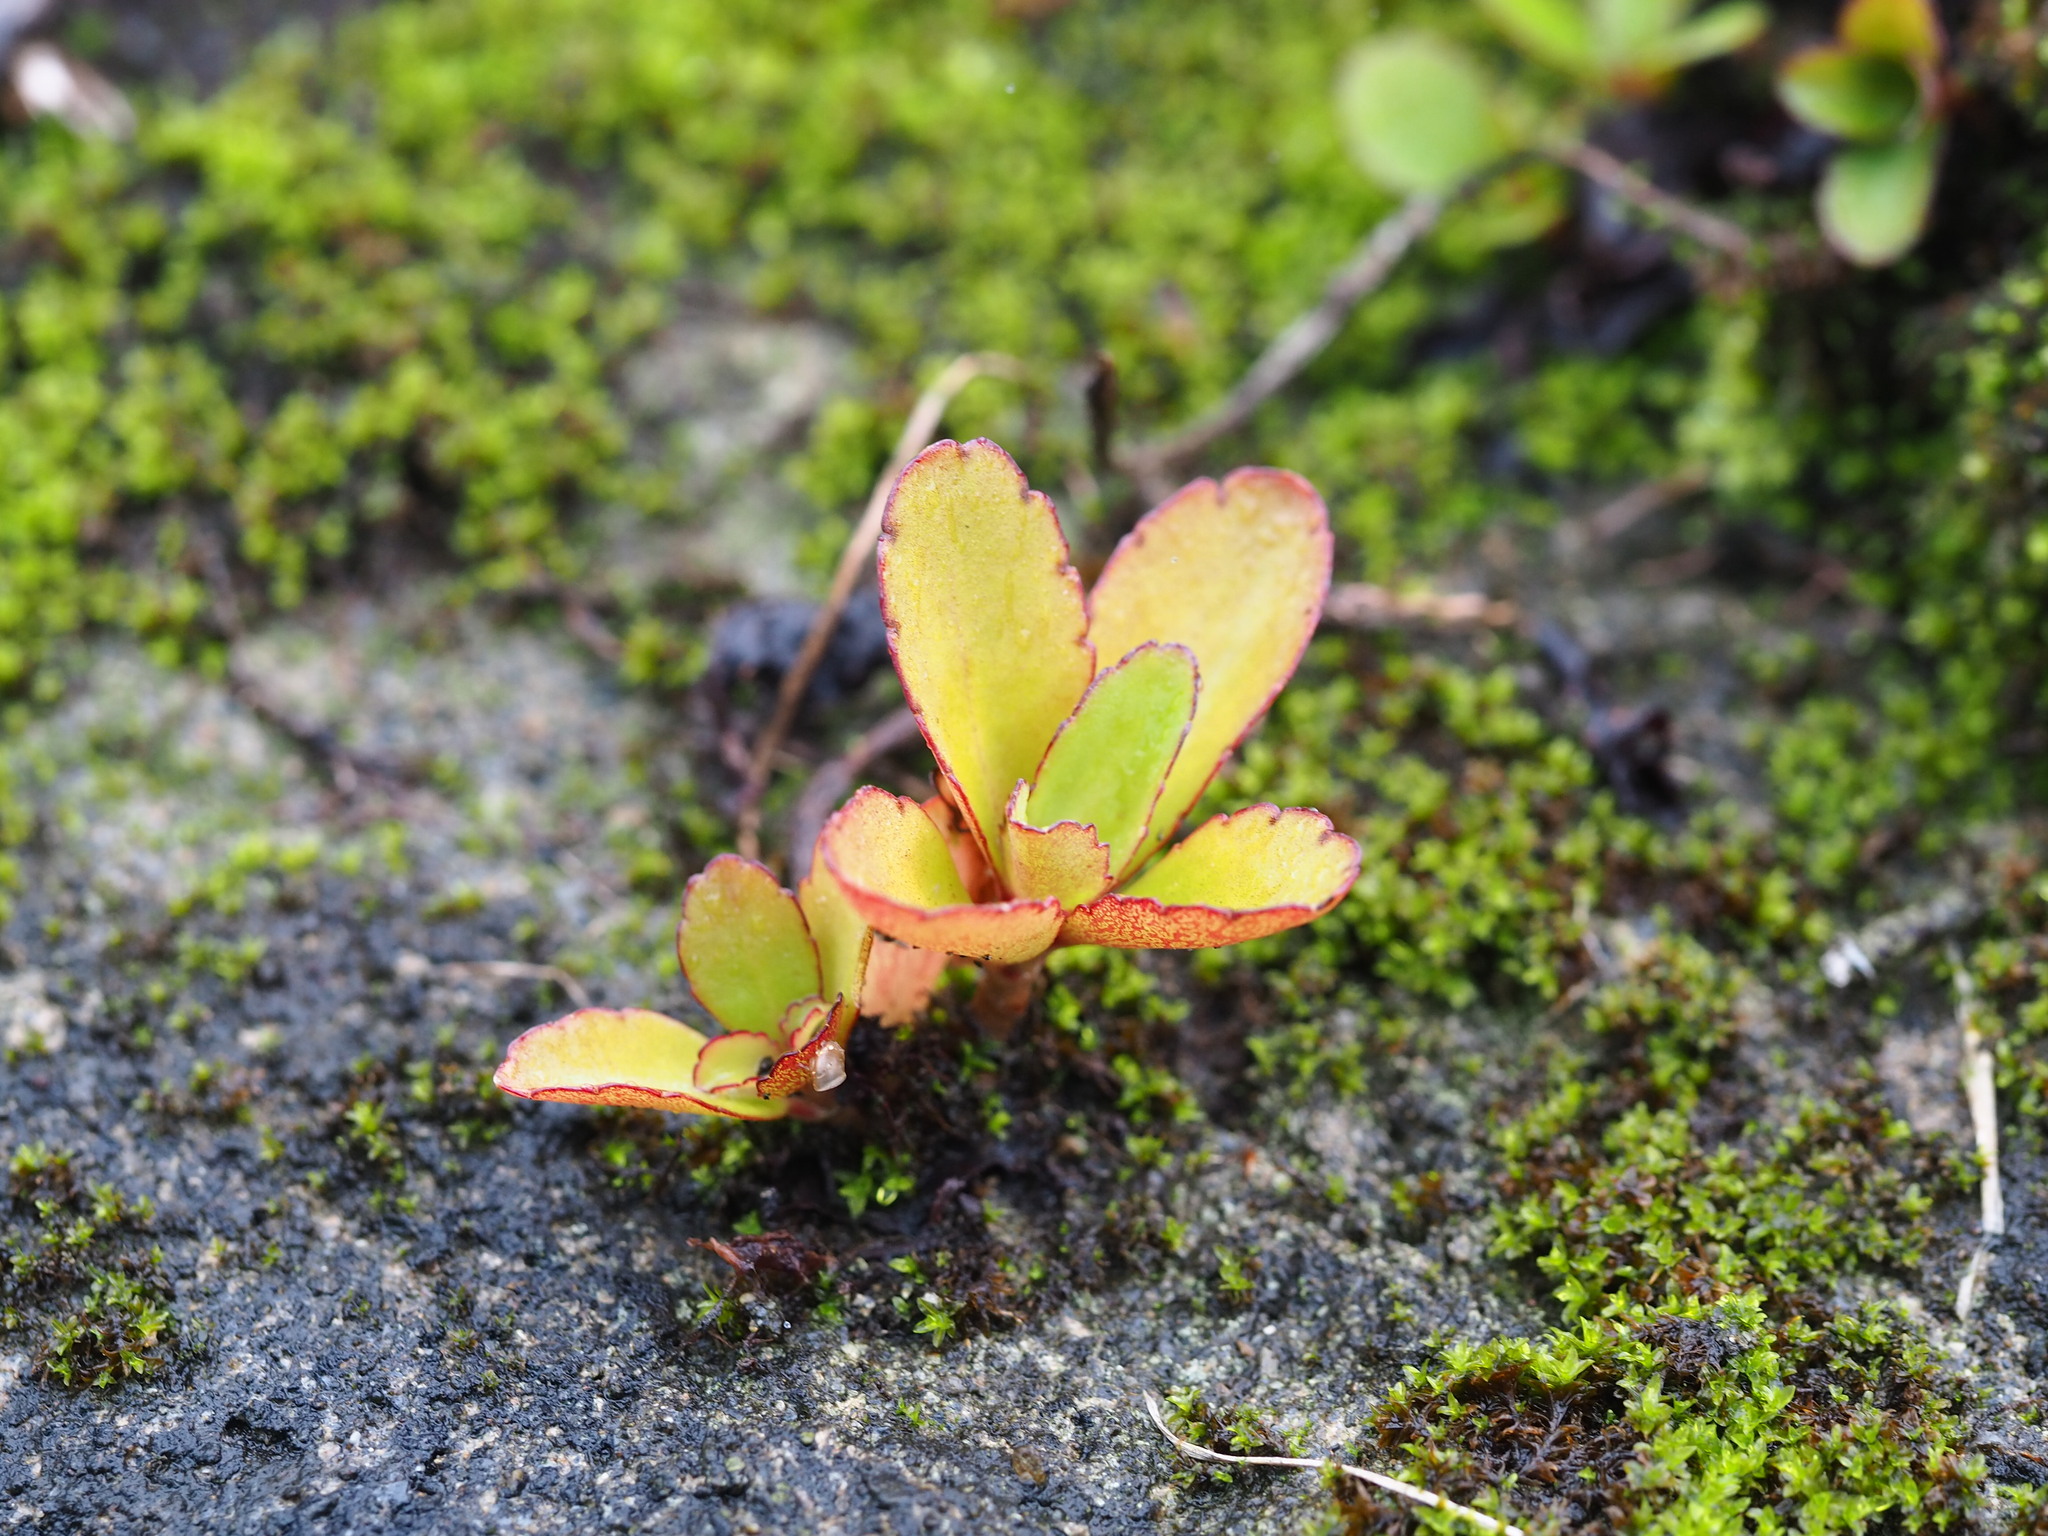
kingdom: Plantae
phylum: Tracheophyta
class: Magnoliopsida
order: Saxifragales
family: Crassulaceae
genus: Kalanchoe
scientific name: Kalanchoe pinnata
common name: Cathedral bells
